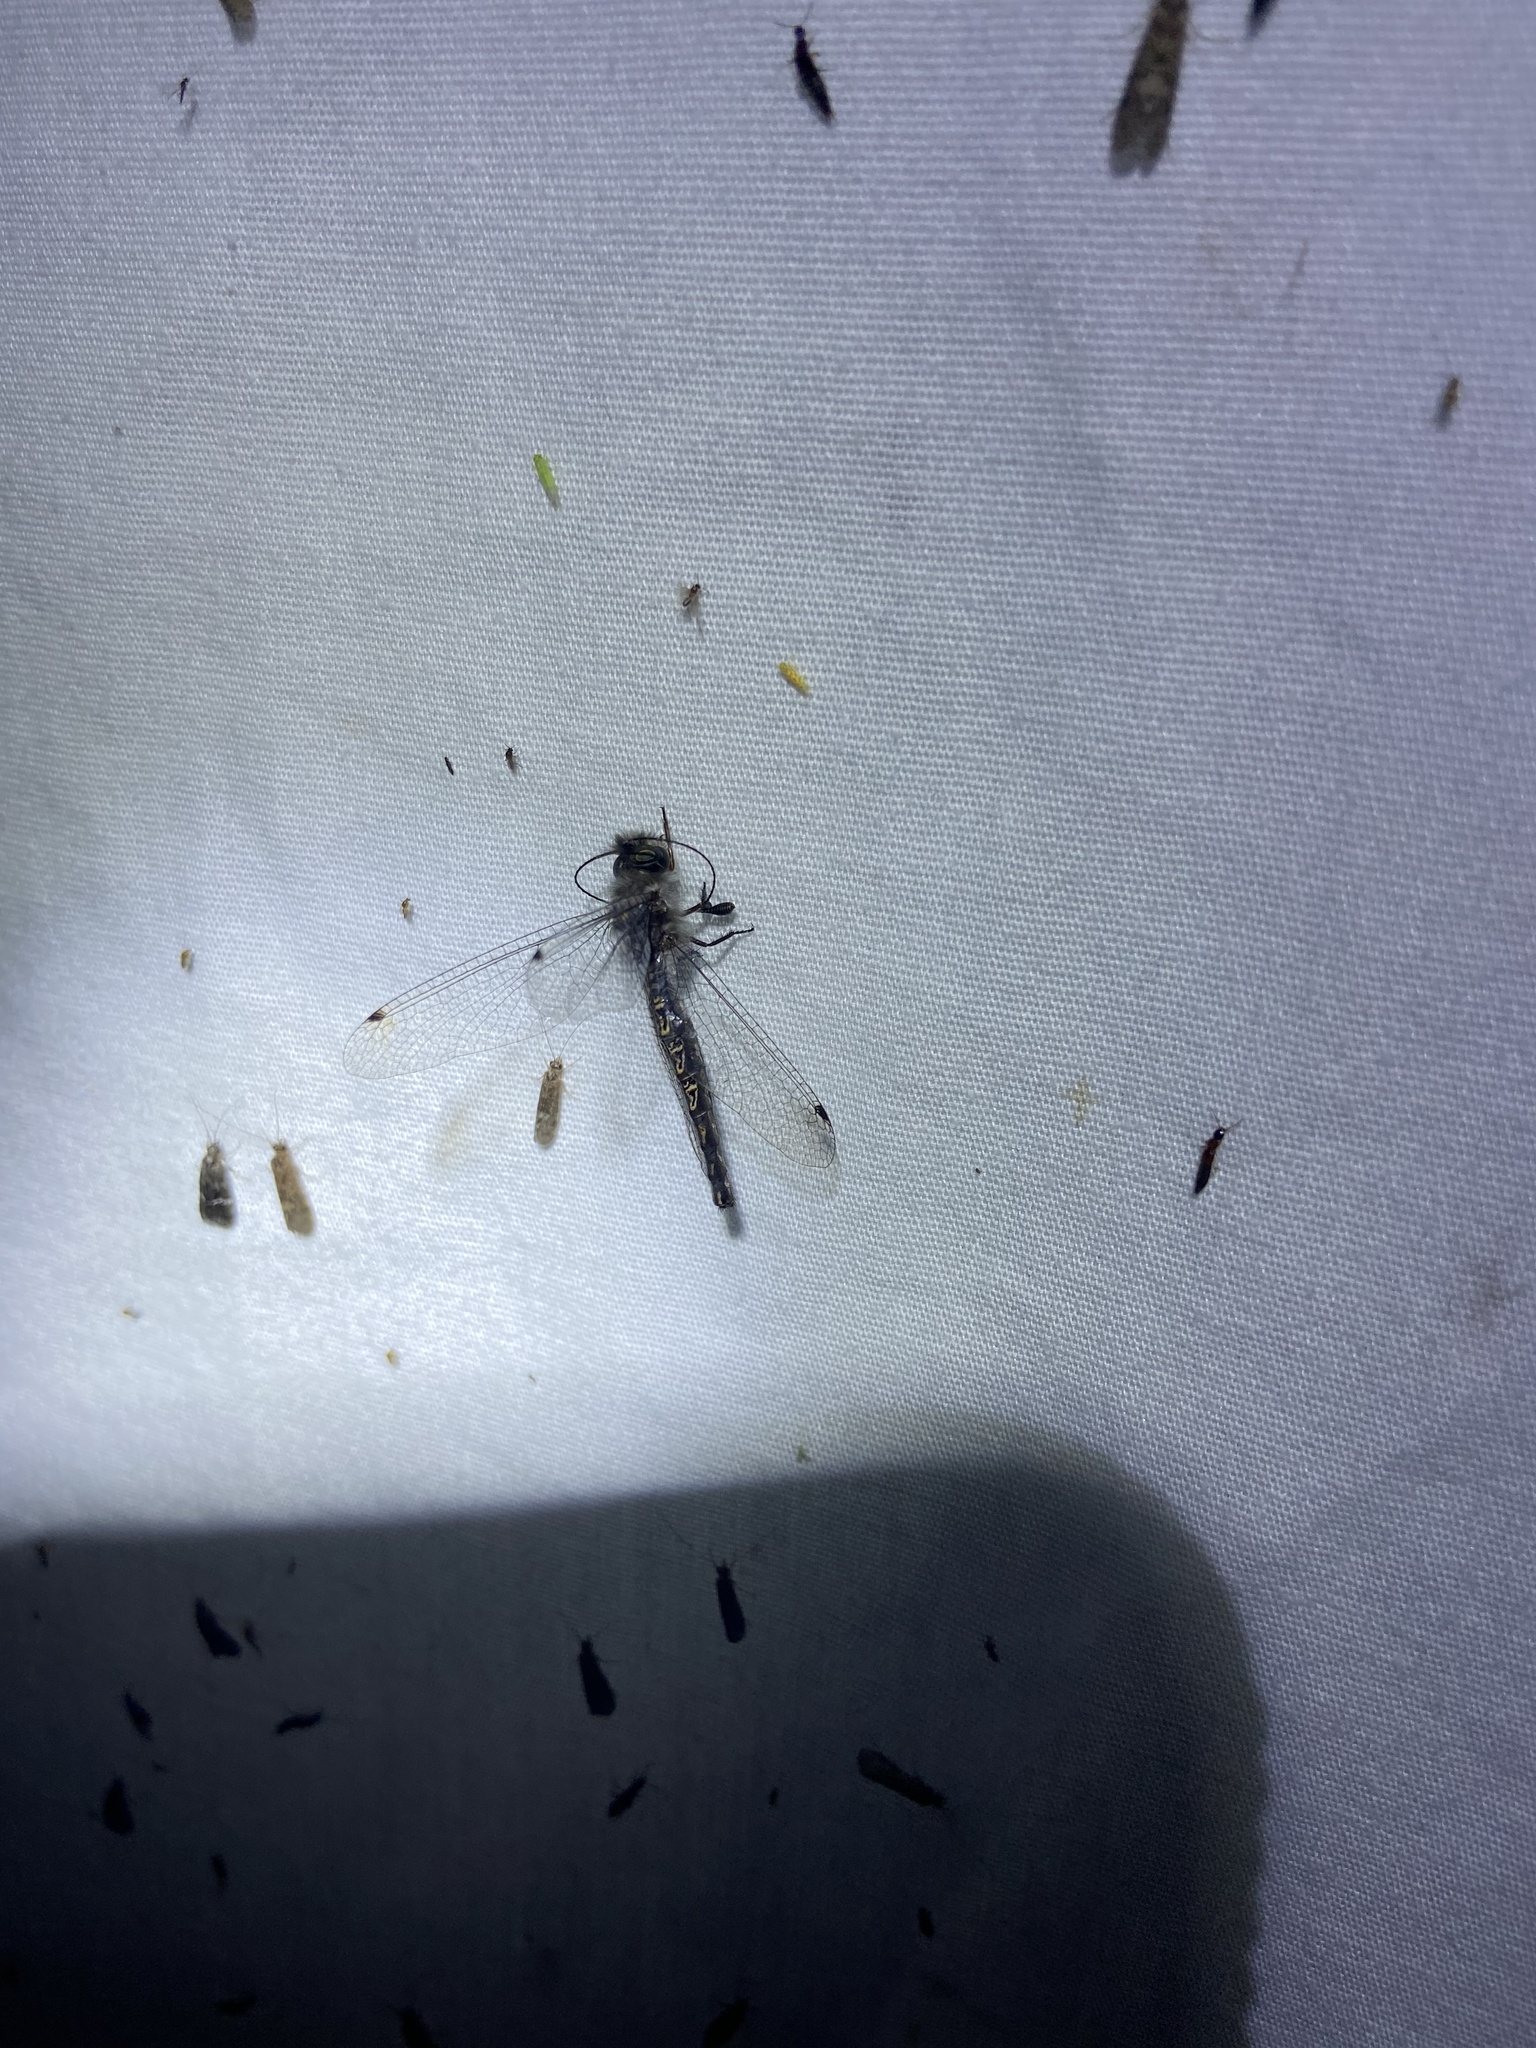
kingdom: Animalia
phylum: Arthropoda
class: Insecta
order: Neuroptera
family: Ascalaphidae
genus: Ululodes
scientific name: Ululodes macleayanus
